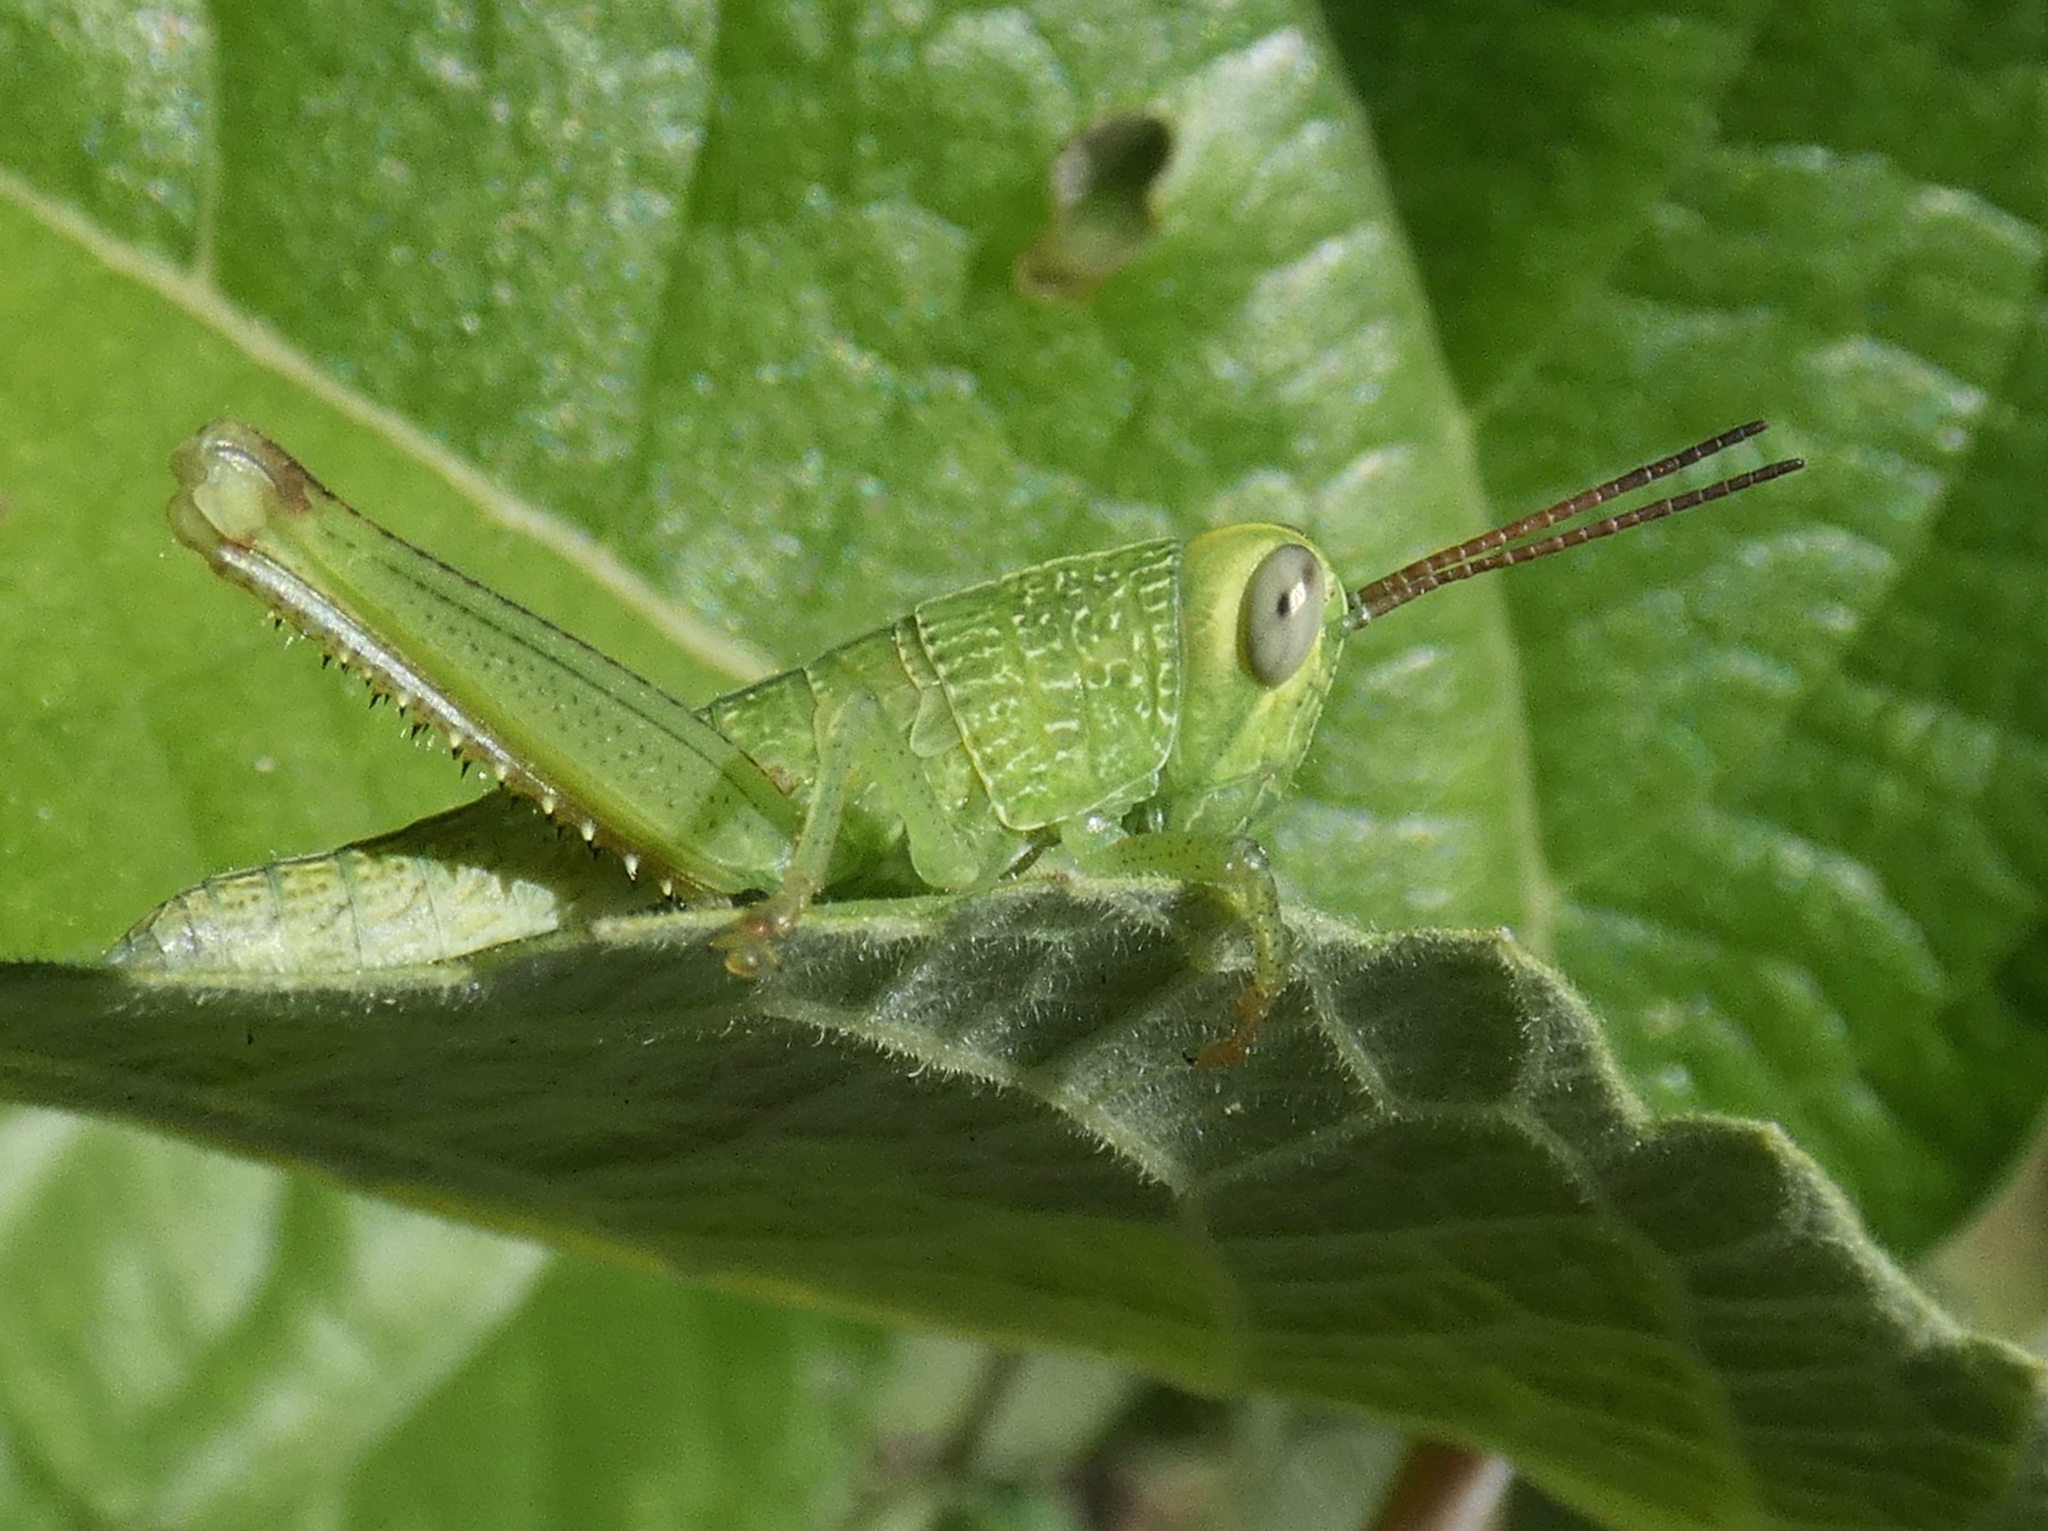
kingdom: Animalia
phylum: Arthropoda
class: Insecta
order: Orthoptera
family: Acrididae
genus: Melicodes
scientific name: Melicodes tenebrosus
